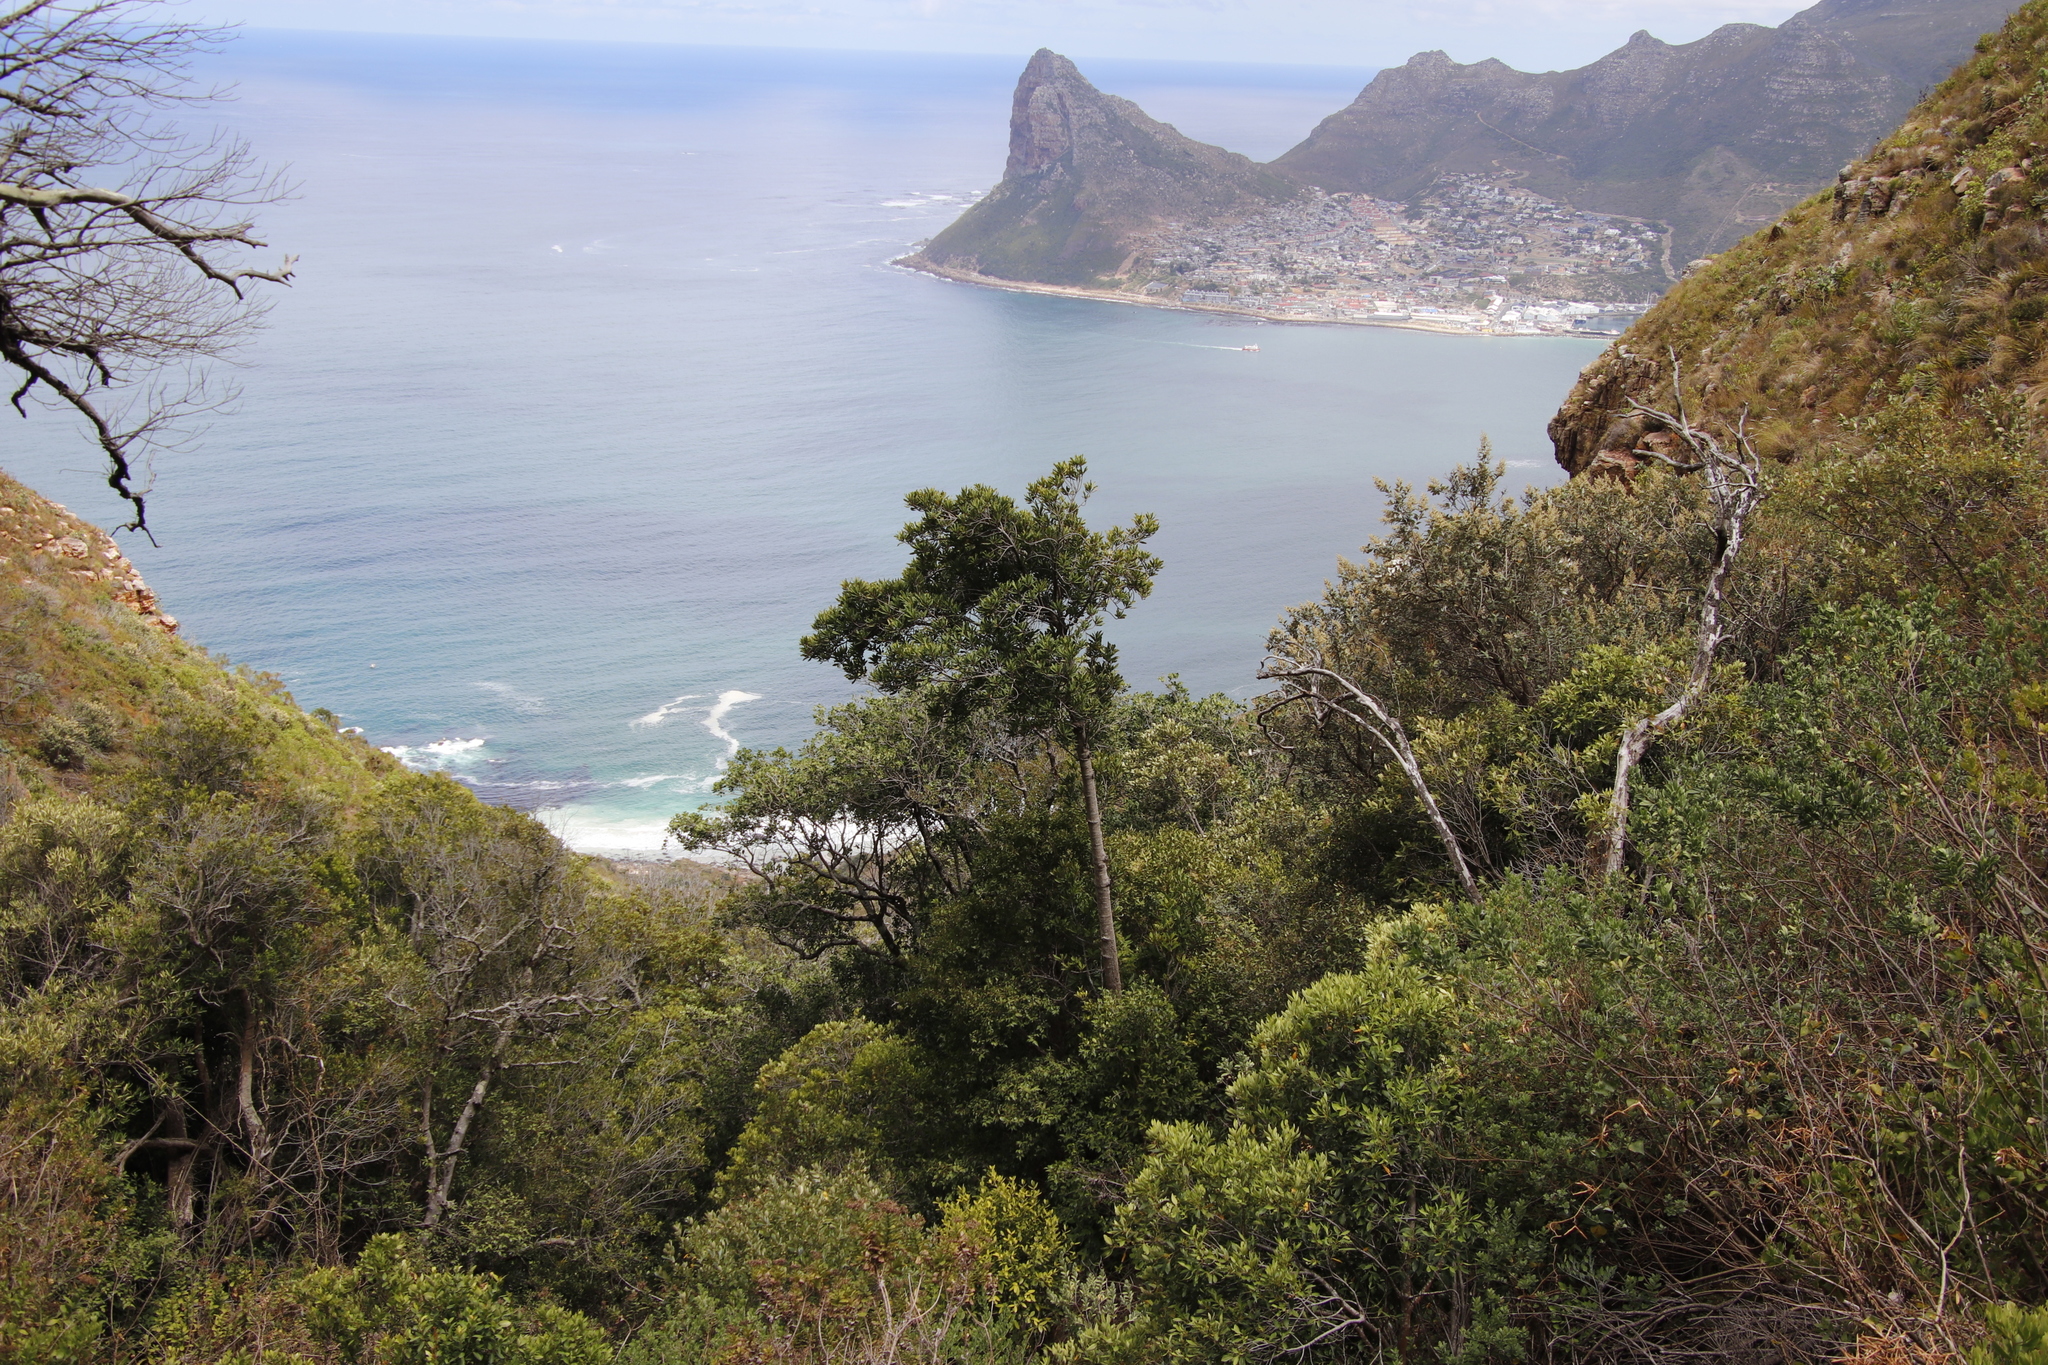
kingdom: Plantae
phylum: Tracheophyta
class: Magnoliopsida
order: Ericales
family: Primulaceae
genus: Myrsine
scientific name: Myrsine melanophloeos
